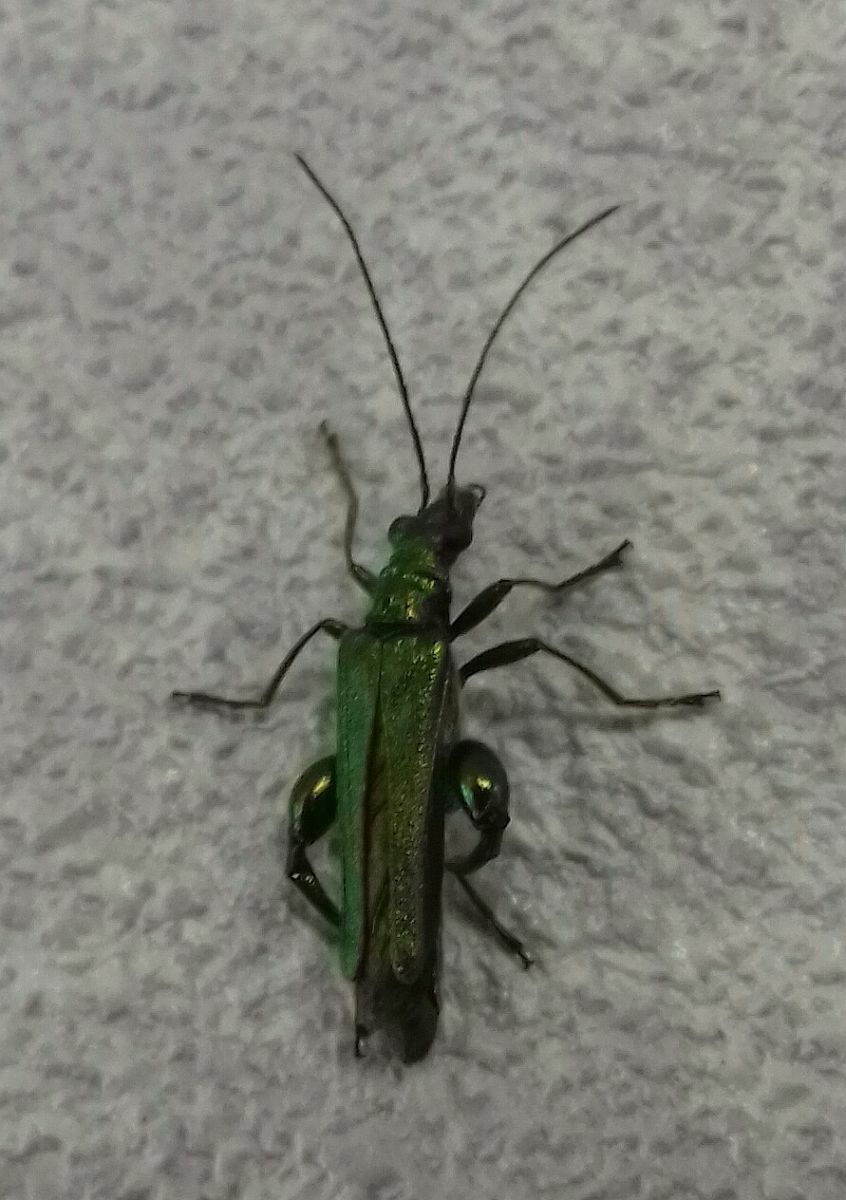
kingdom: Animalia
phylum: Arthropoda
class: Insecta
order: Coleoptera
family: Oedemeridae
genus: Oedemera
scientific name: Oedemera nobilis
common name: Swollen-thighed beetle
